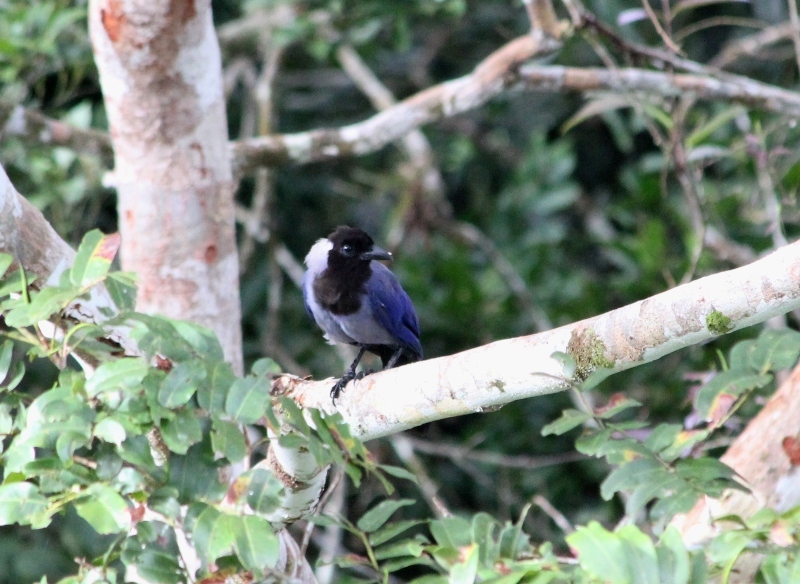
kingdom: Animalia
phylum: Chordata
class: Aves
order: Passeriformes
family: Corvidae
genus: Cyanocorax
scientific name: Cyanocorax violaceus
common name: Violaceous jay
